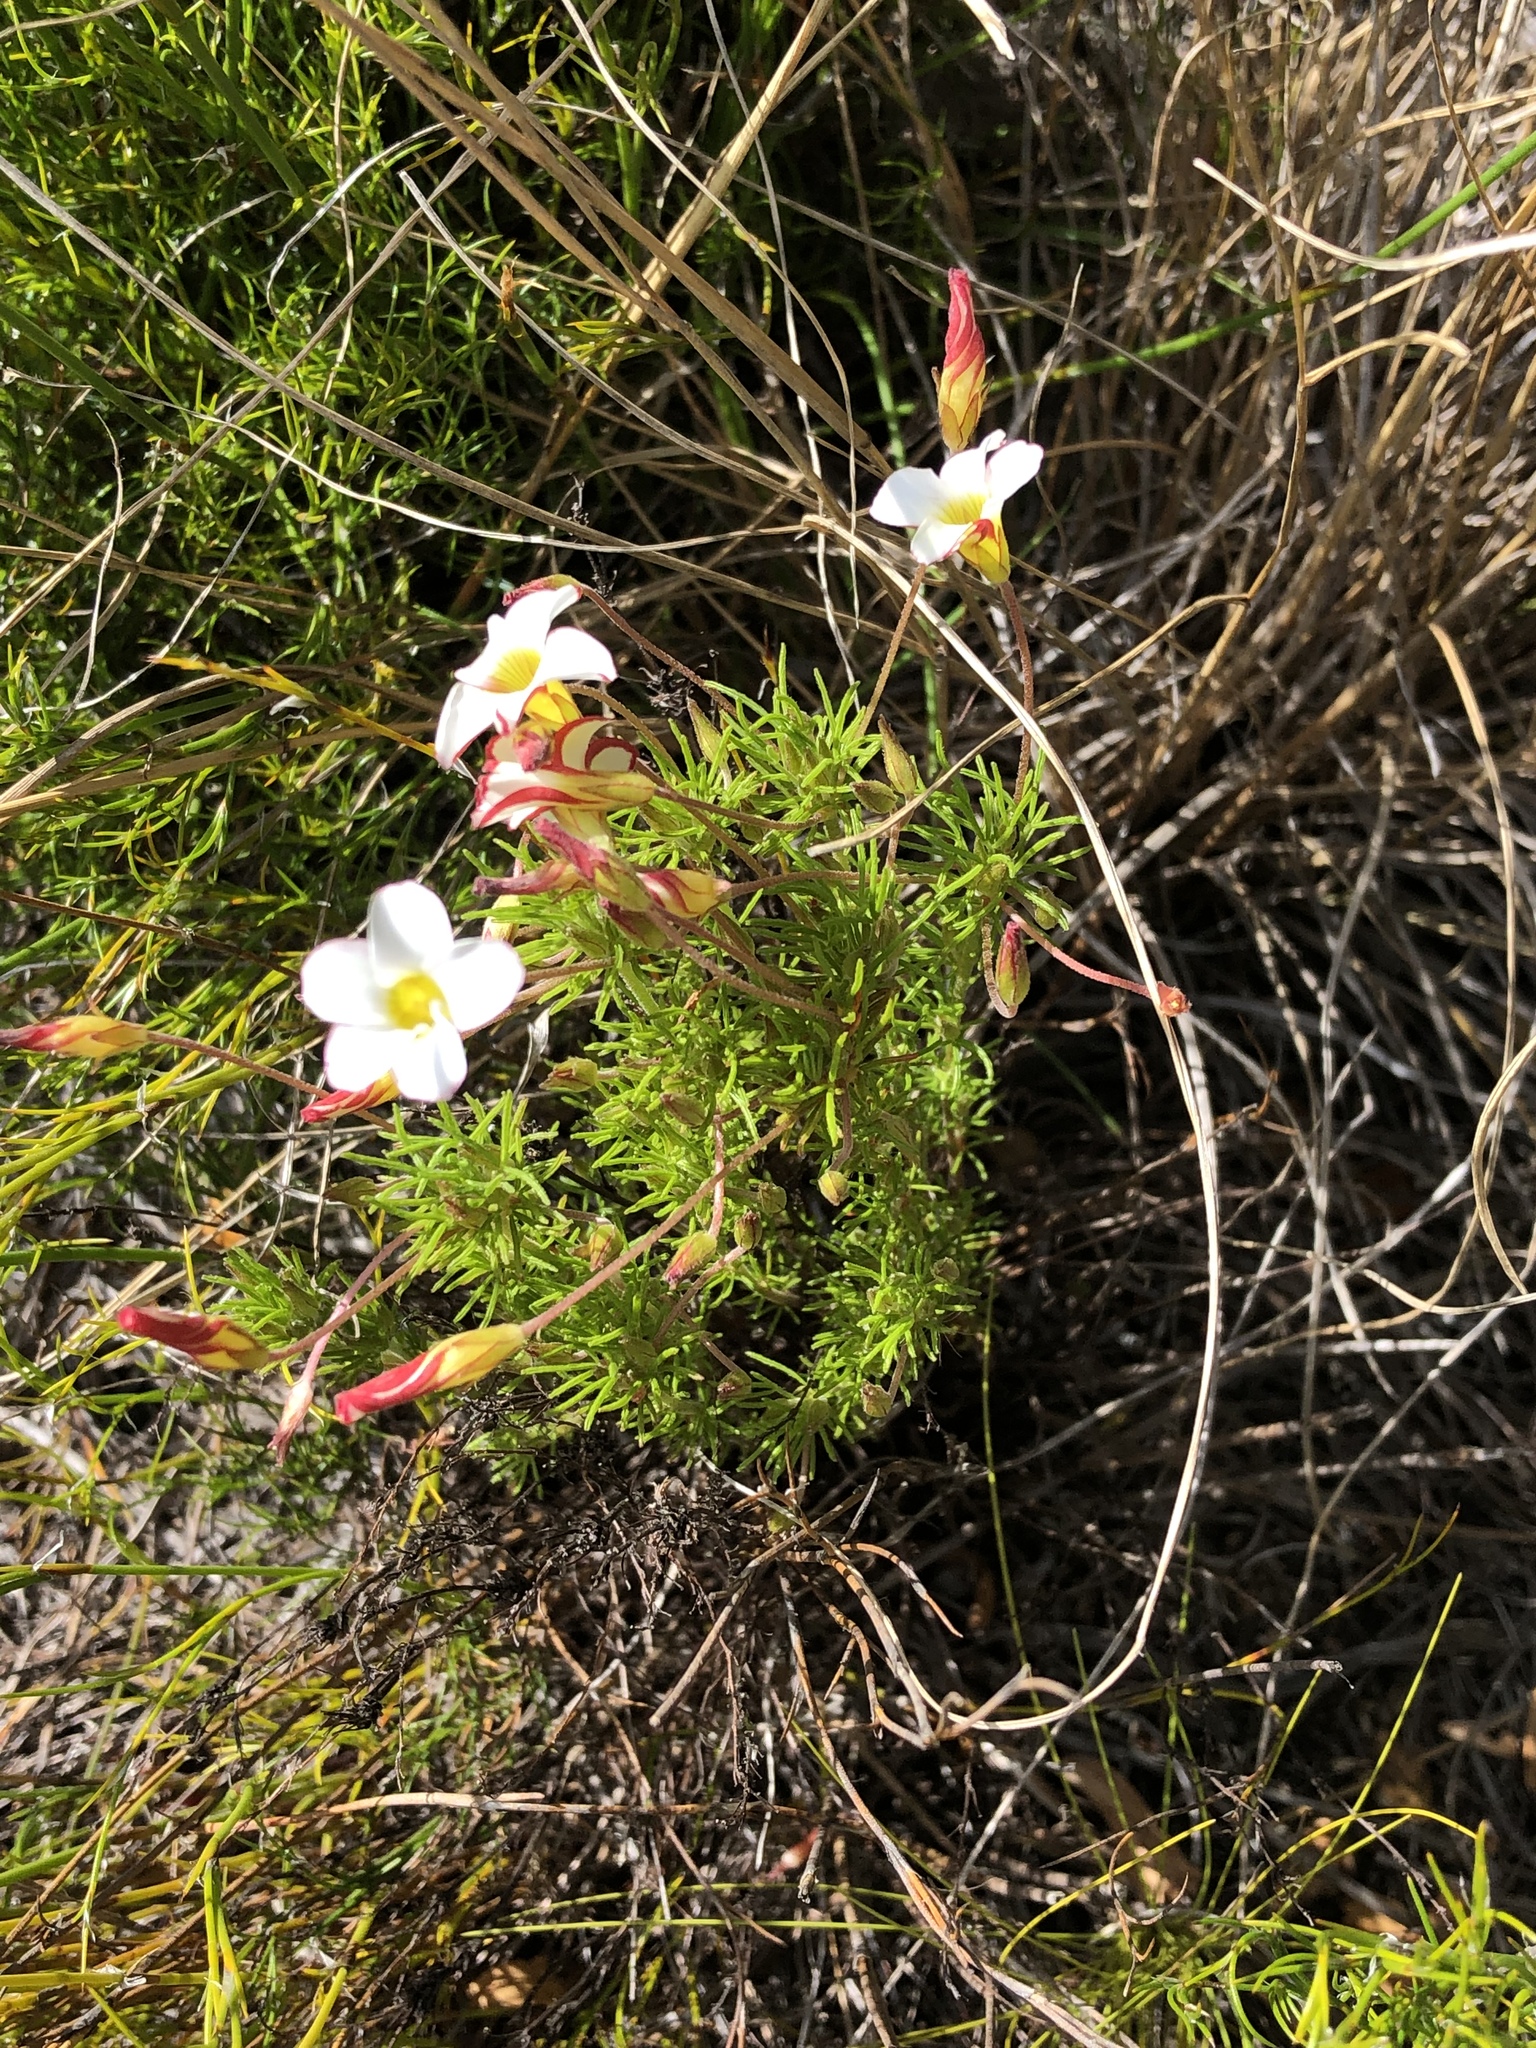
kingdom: Plantae
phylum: Tracheophyta
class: Magnoliopsida
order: Oxalidales
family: Oxalidaceae
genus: Oxalis
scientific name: Oxalis tenuifolia
